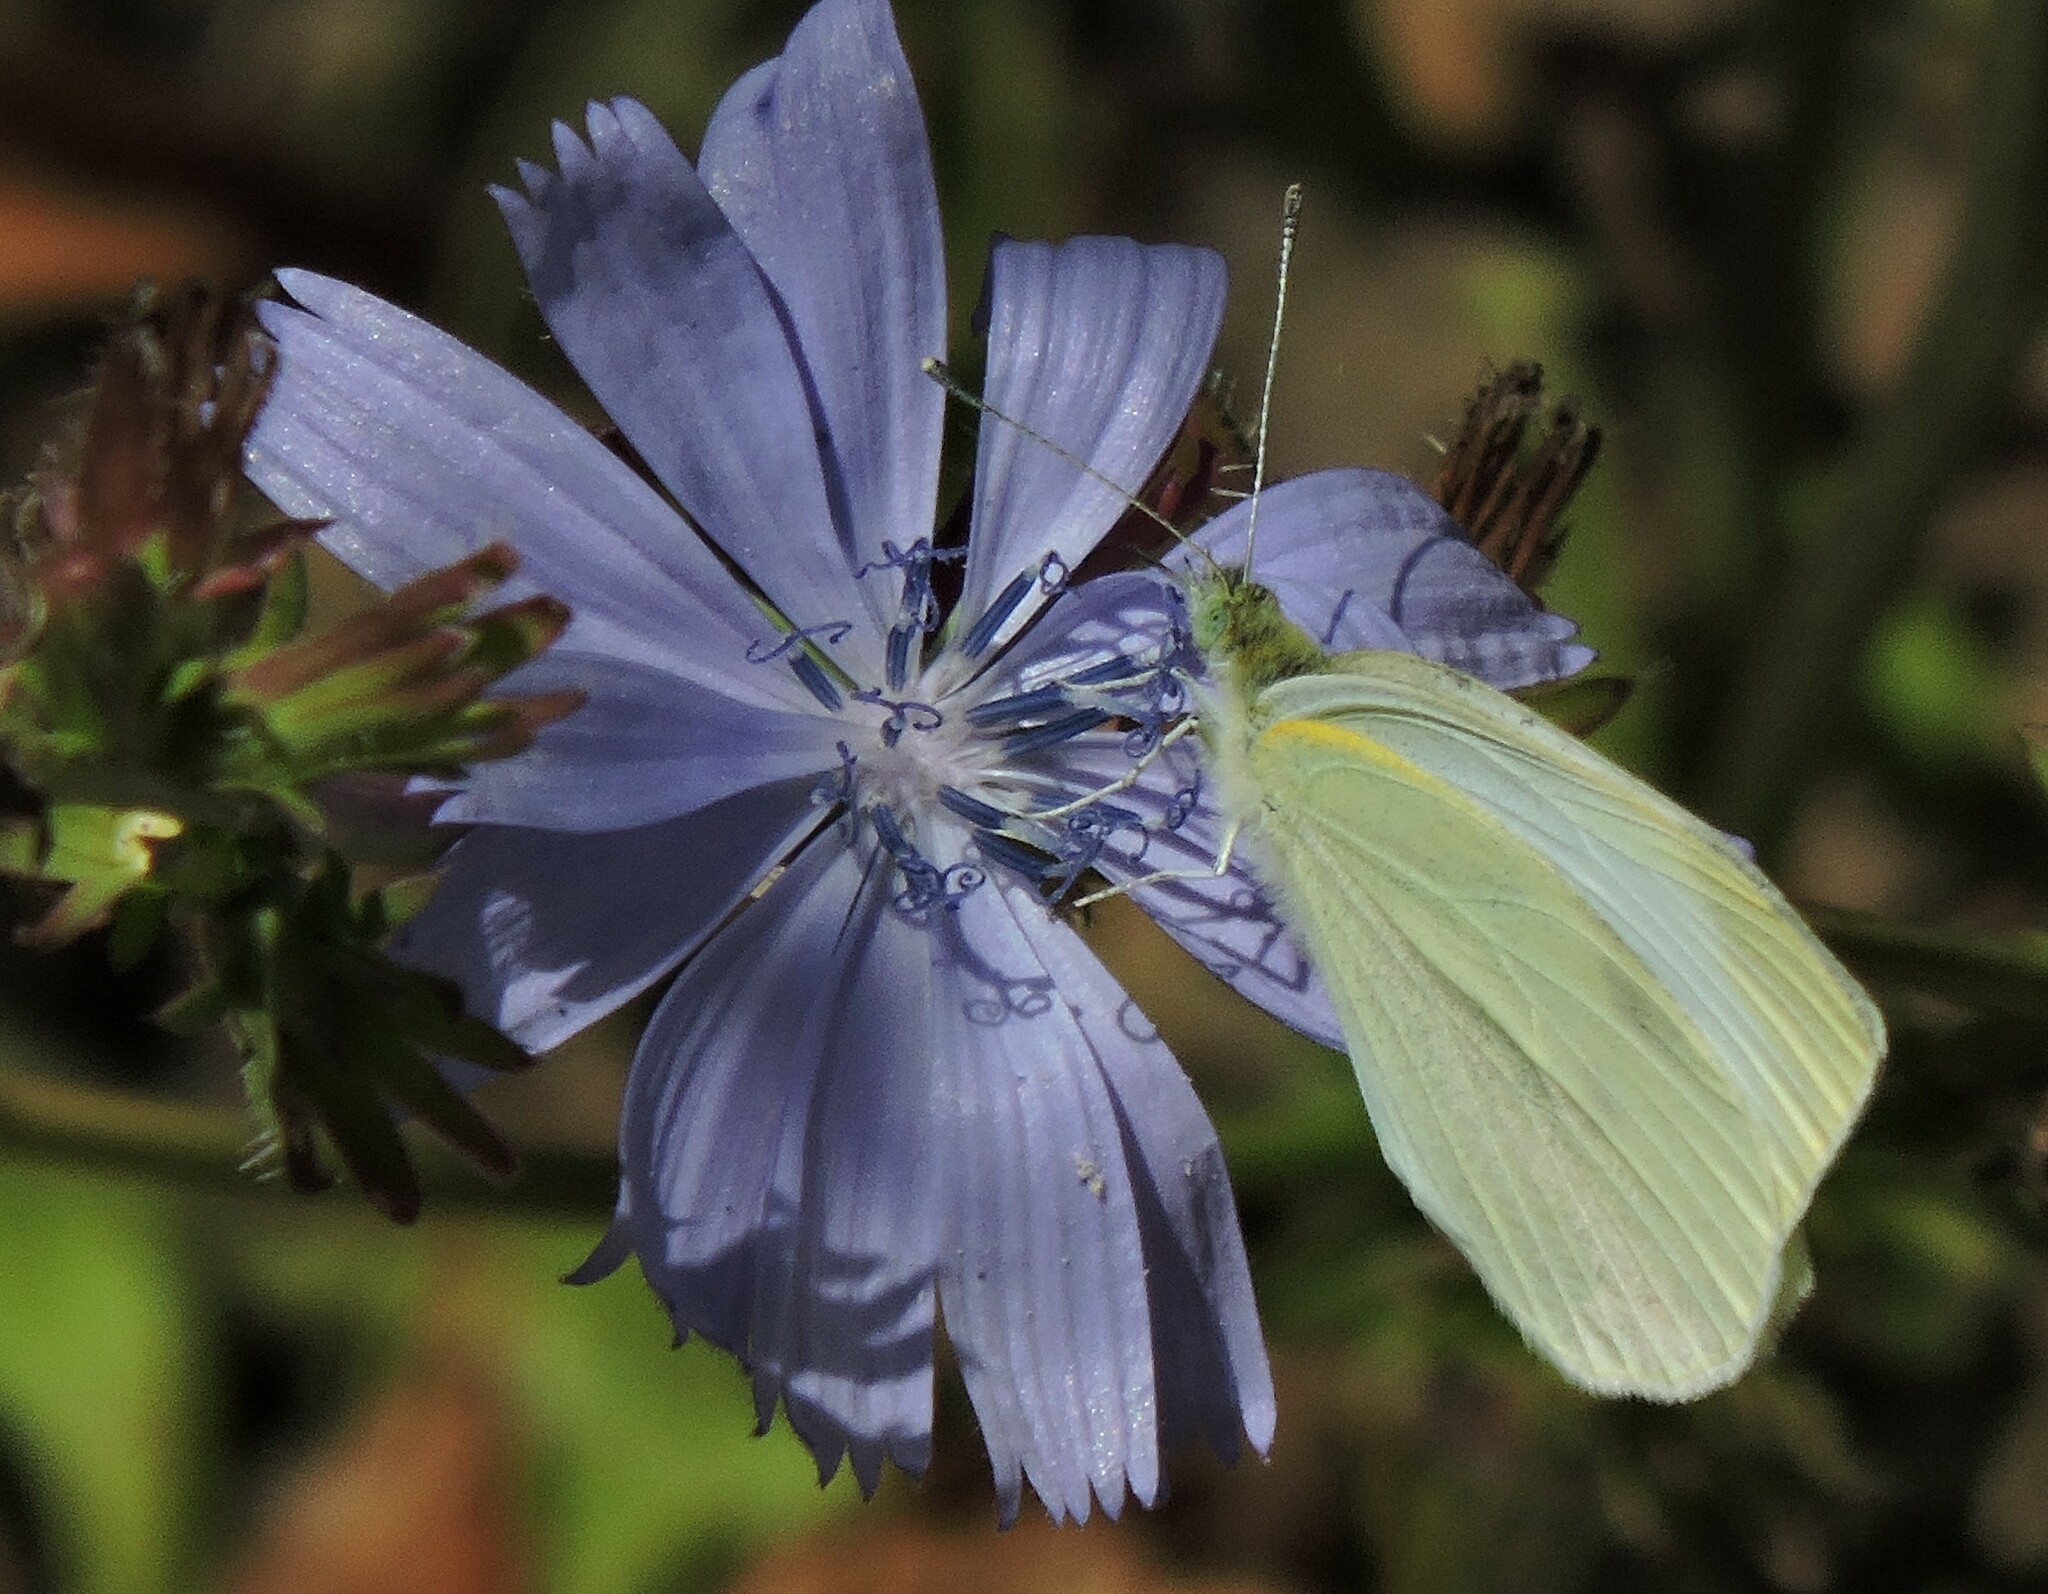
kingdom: Animalia
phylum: Arthropoda
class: Insecta
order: Lepidoptera
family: Pieridae
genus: Pieris
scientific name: Pieris rapae
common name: Small white
